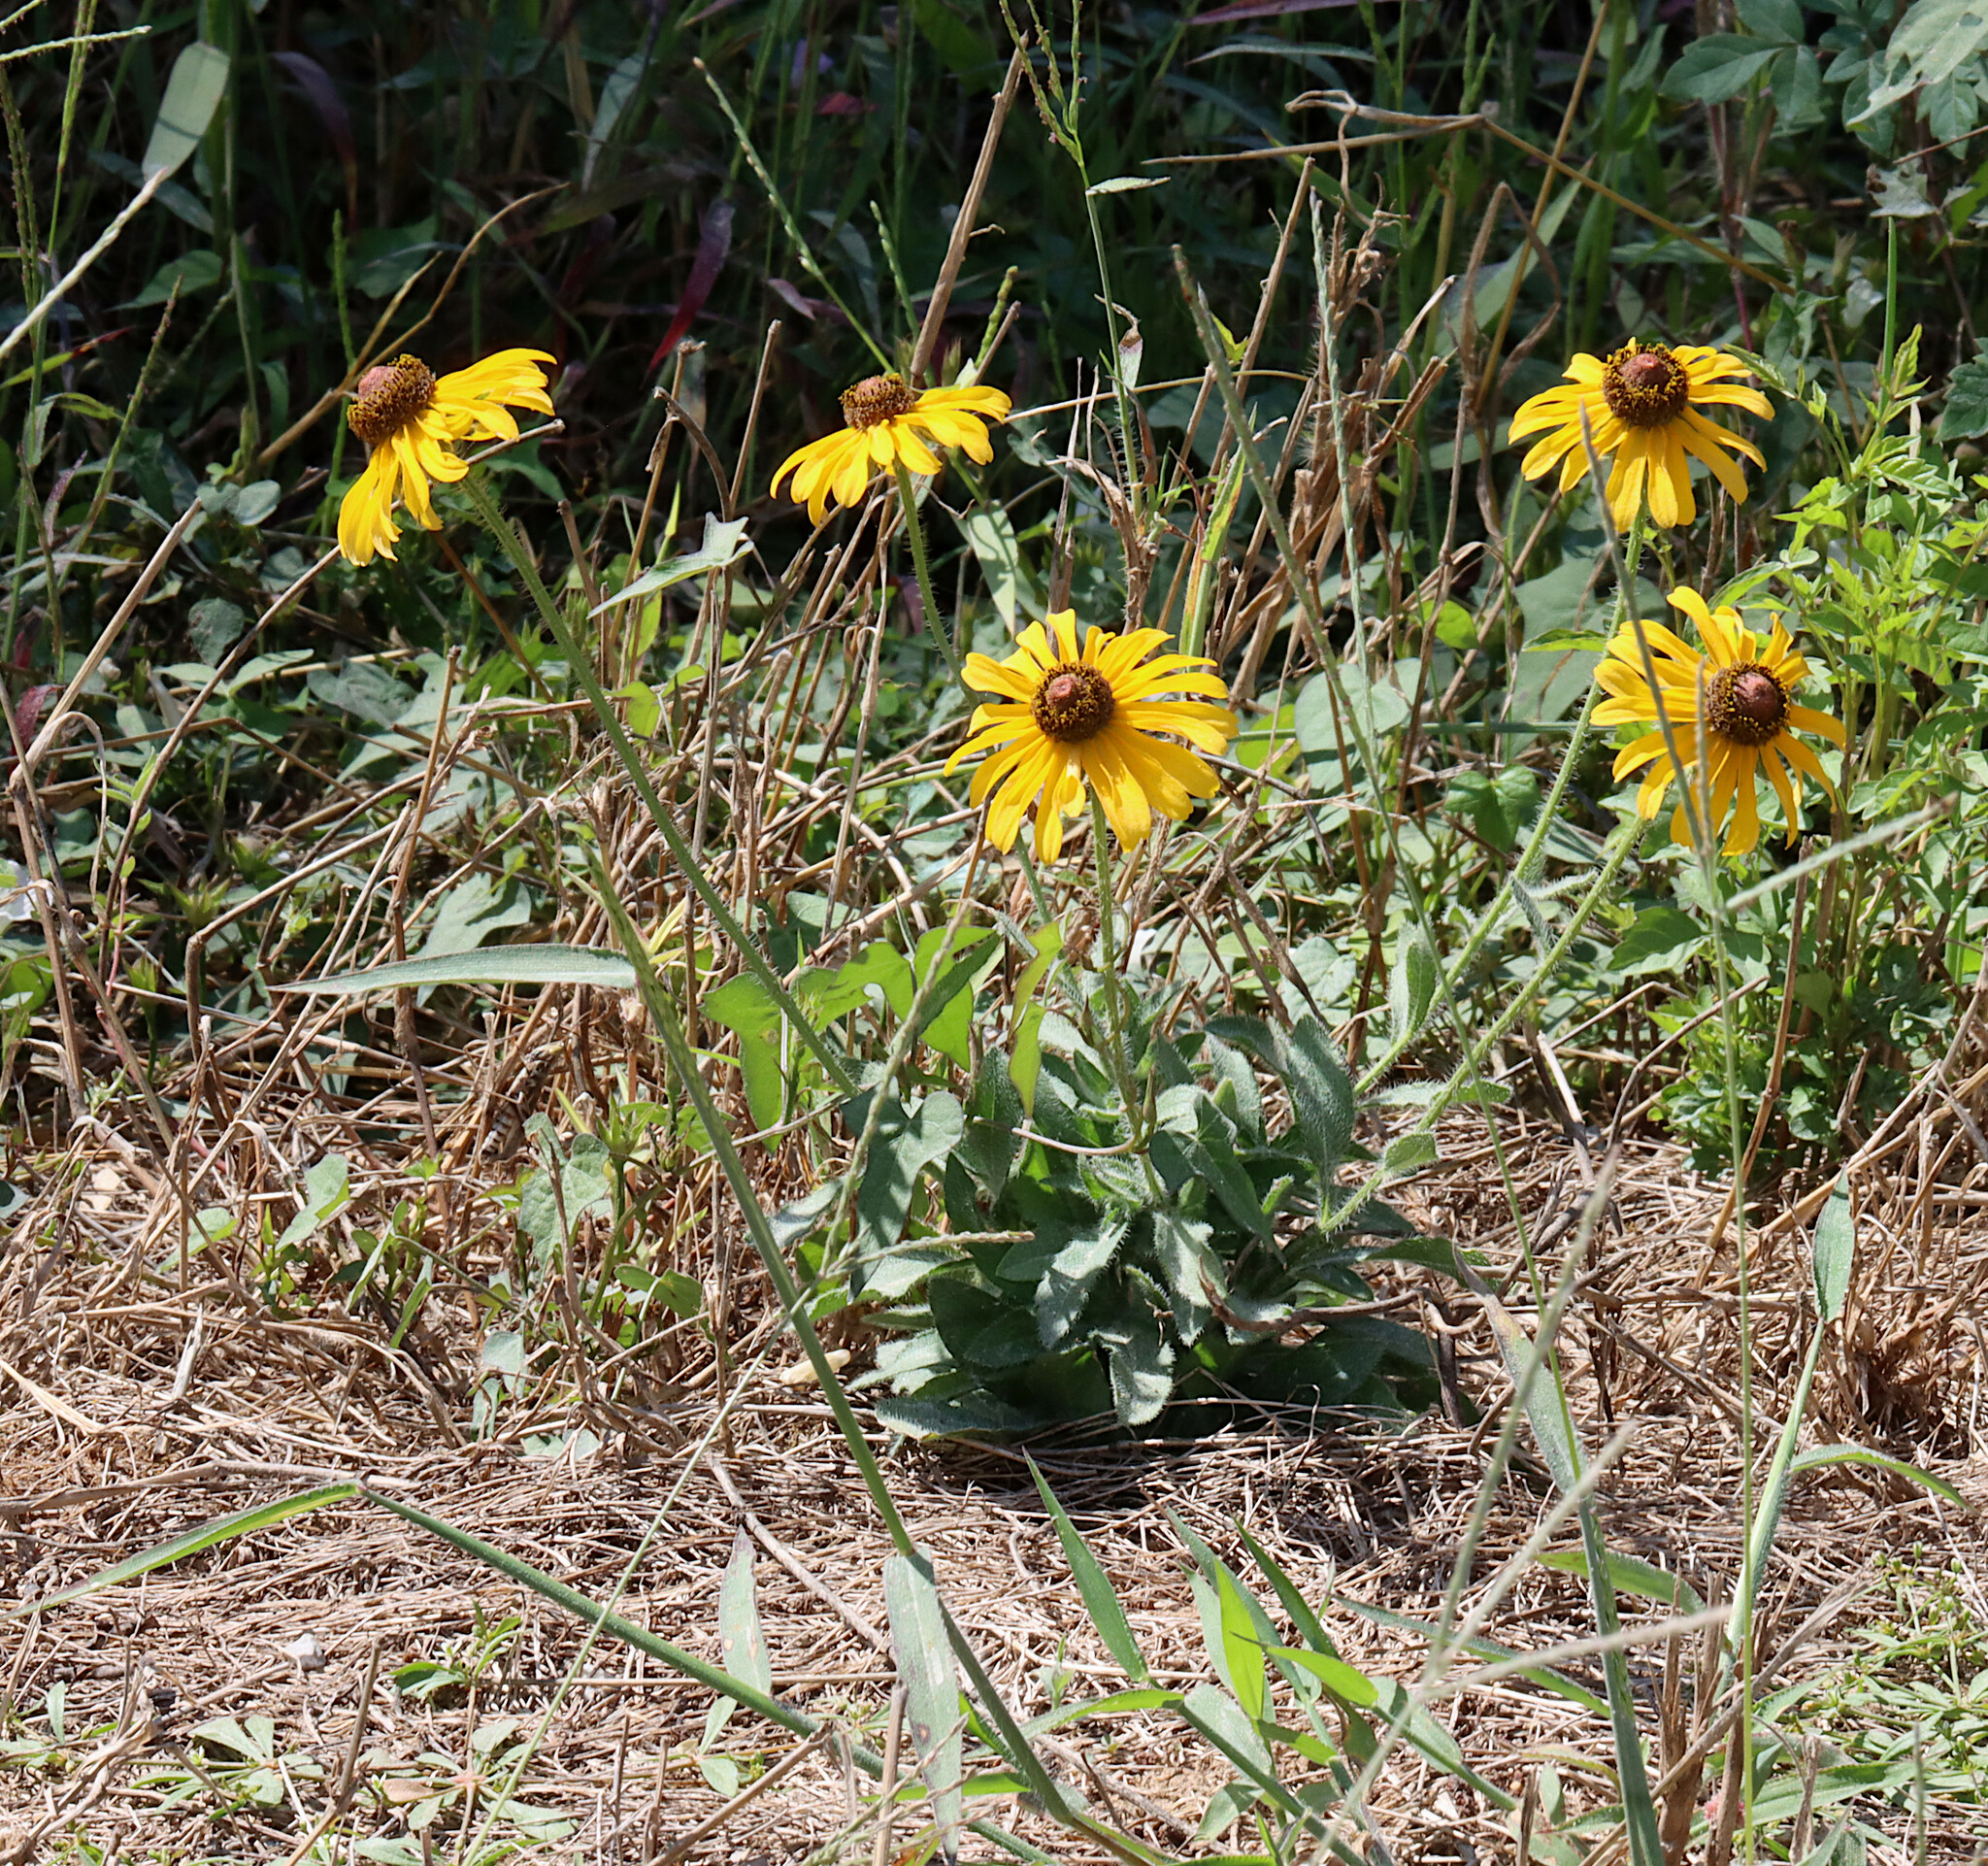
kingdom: Plantae
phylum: Tracheophyta
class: Magnoliopsida
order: Asterales
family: Asteraceae
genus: Rudbeckia
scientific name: Rudbeckia hirta
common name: Black-eyed-susan
